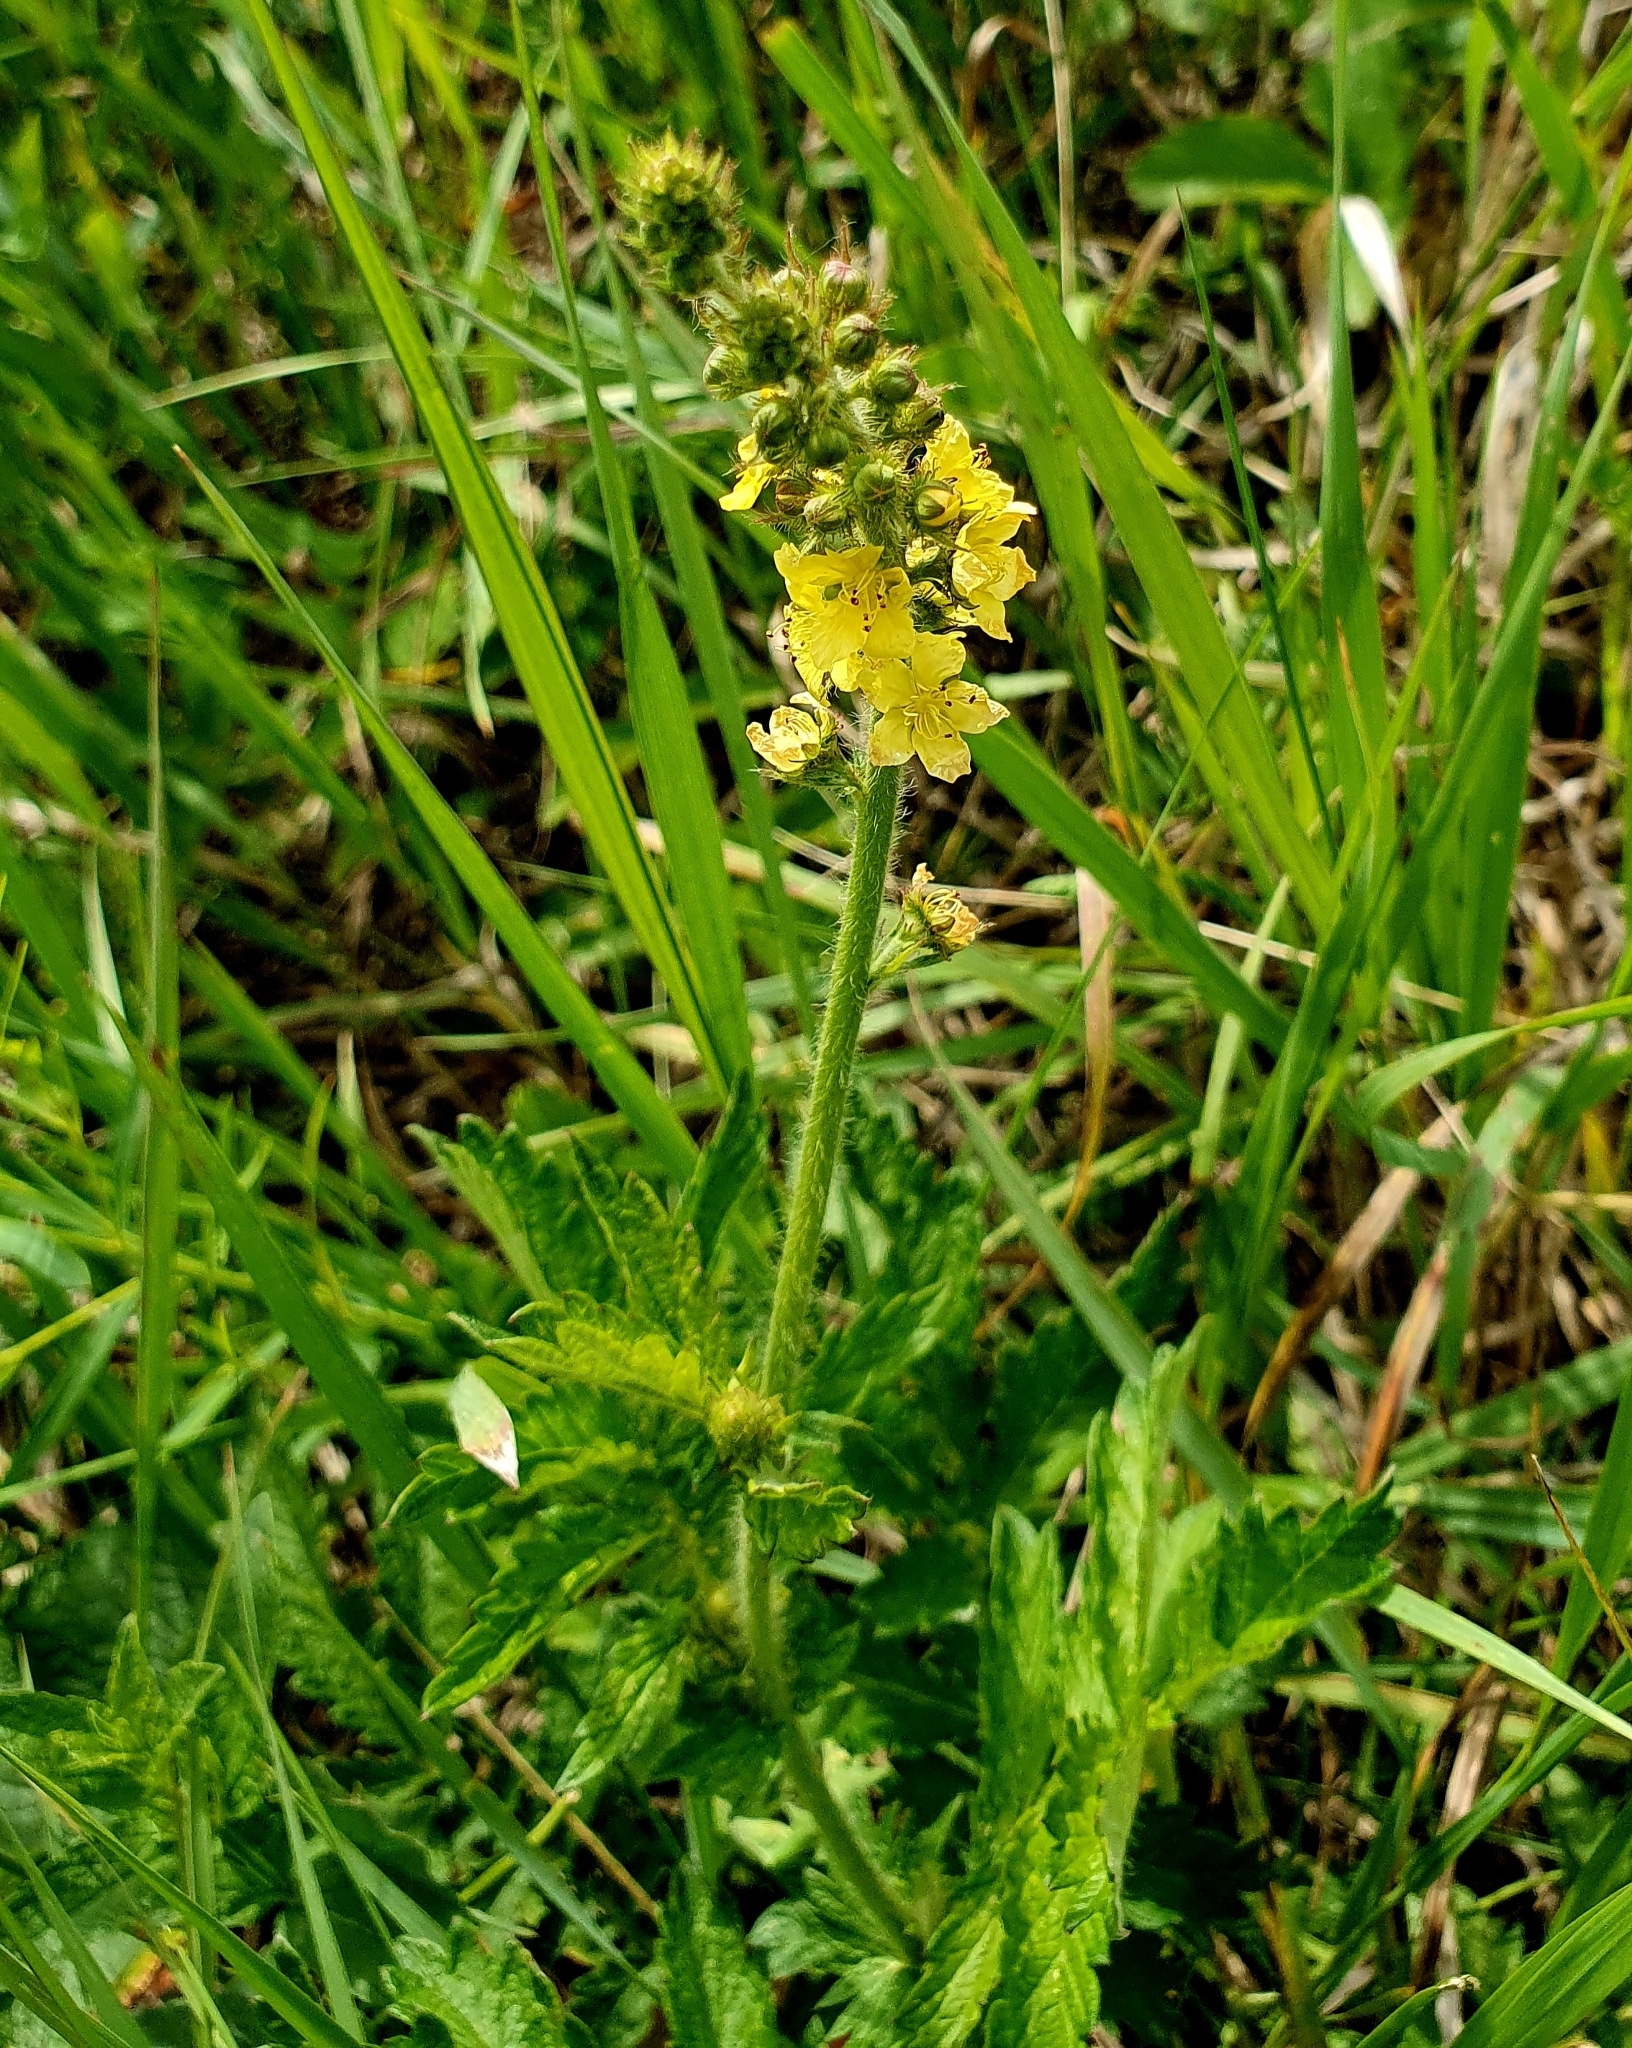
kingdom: Plantae
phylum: Tracheophyta
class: Magnoliopsida
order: Rosales
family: Rosaceae
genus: Agrimonia
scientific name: Agrimonia eupatoria
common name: Agrimony
